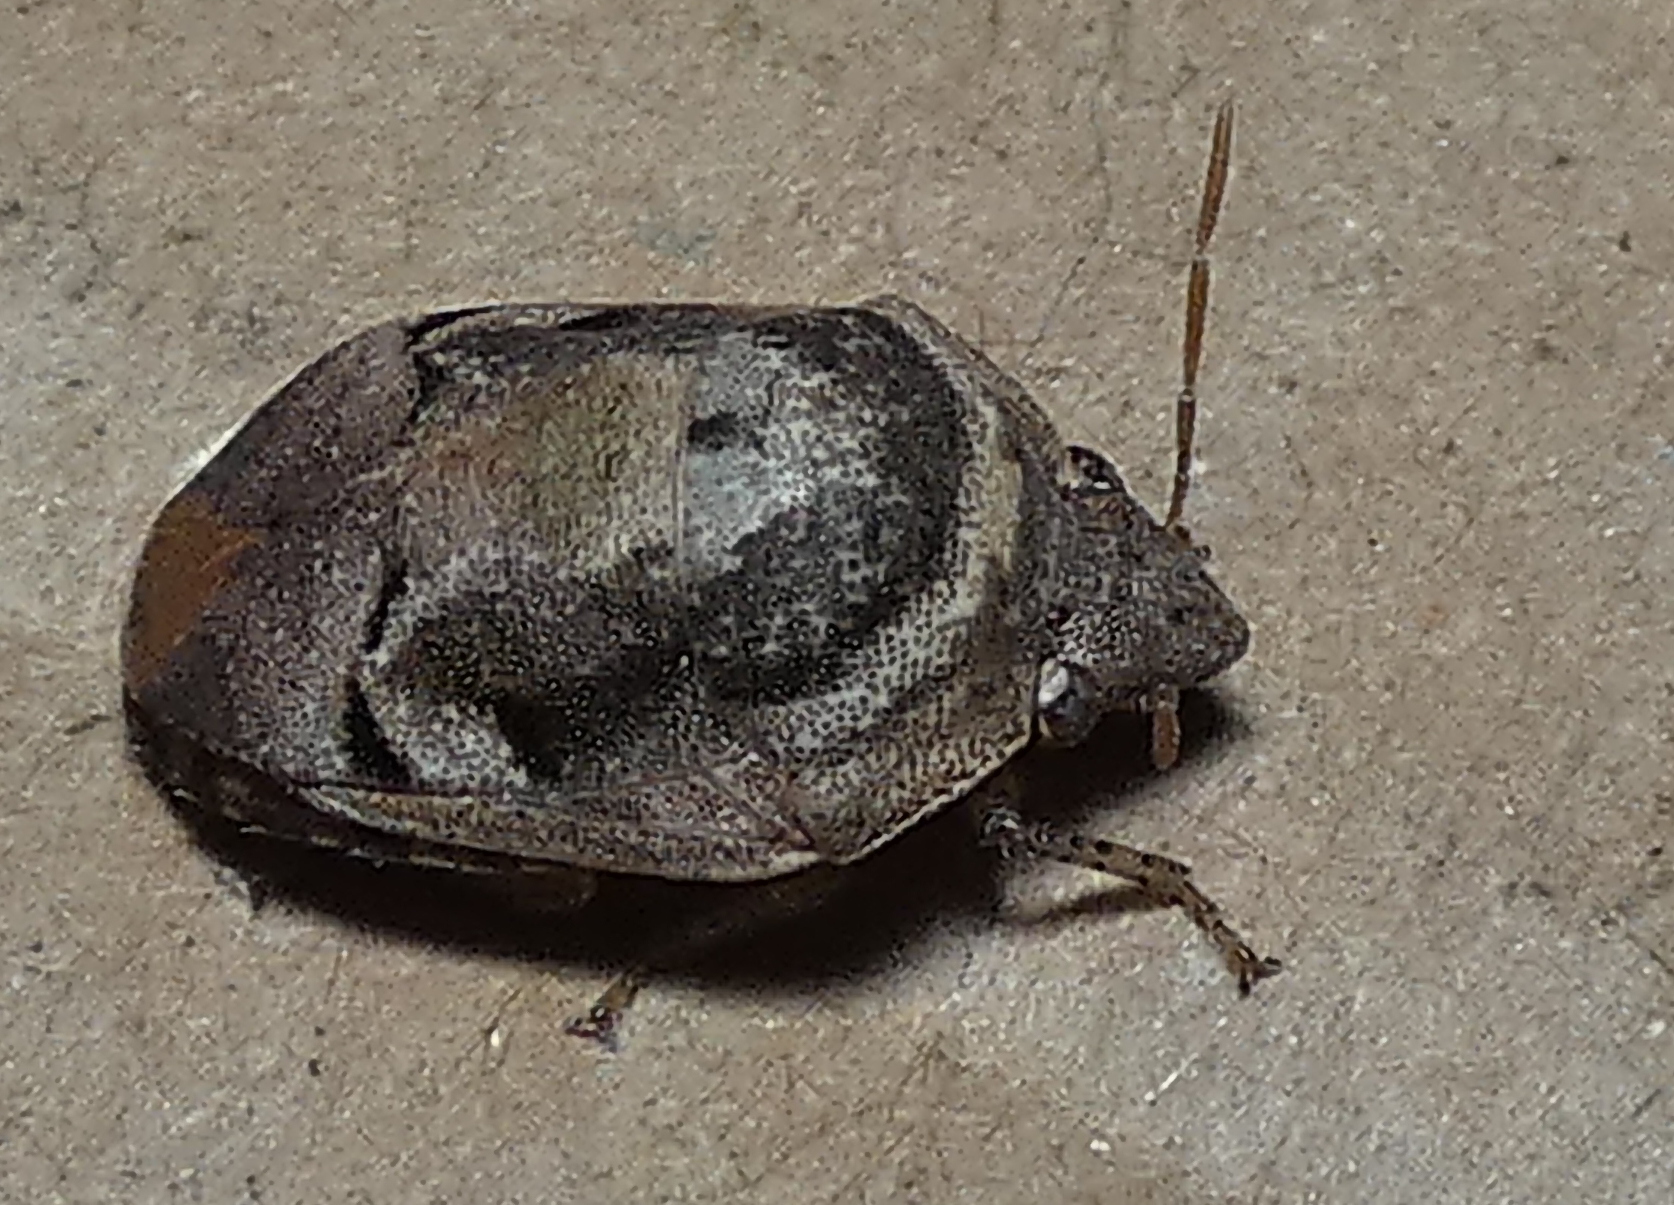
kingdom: Animalia
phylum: Arthropoda
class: Insecta
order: Hemiptera
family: Scutelleridae
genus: Symphylus
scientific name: Symphylus deplanatus
